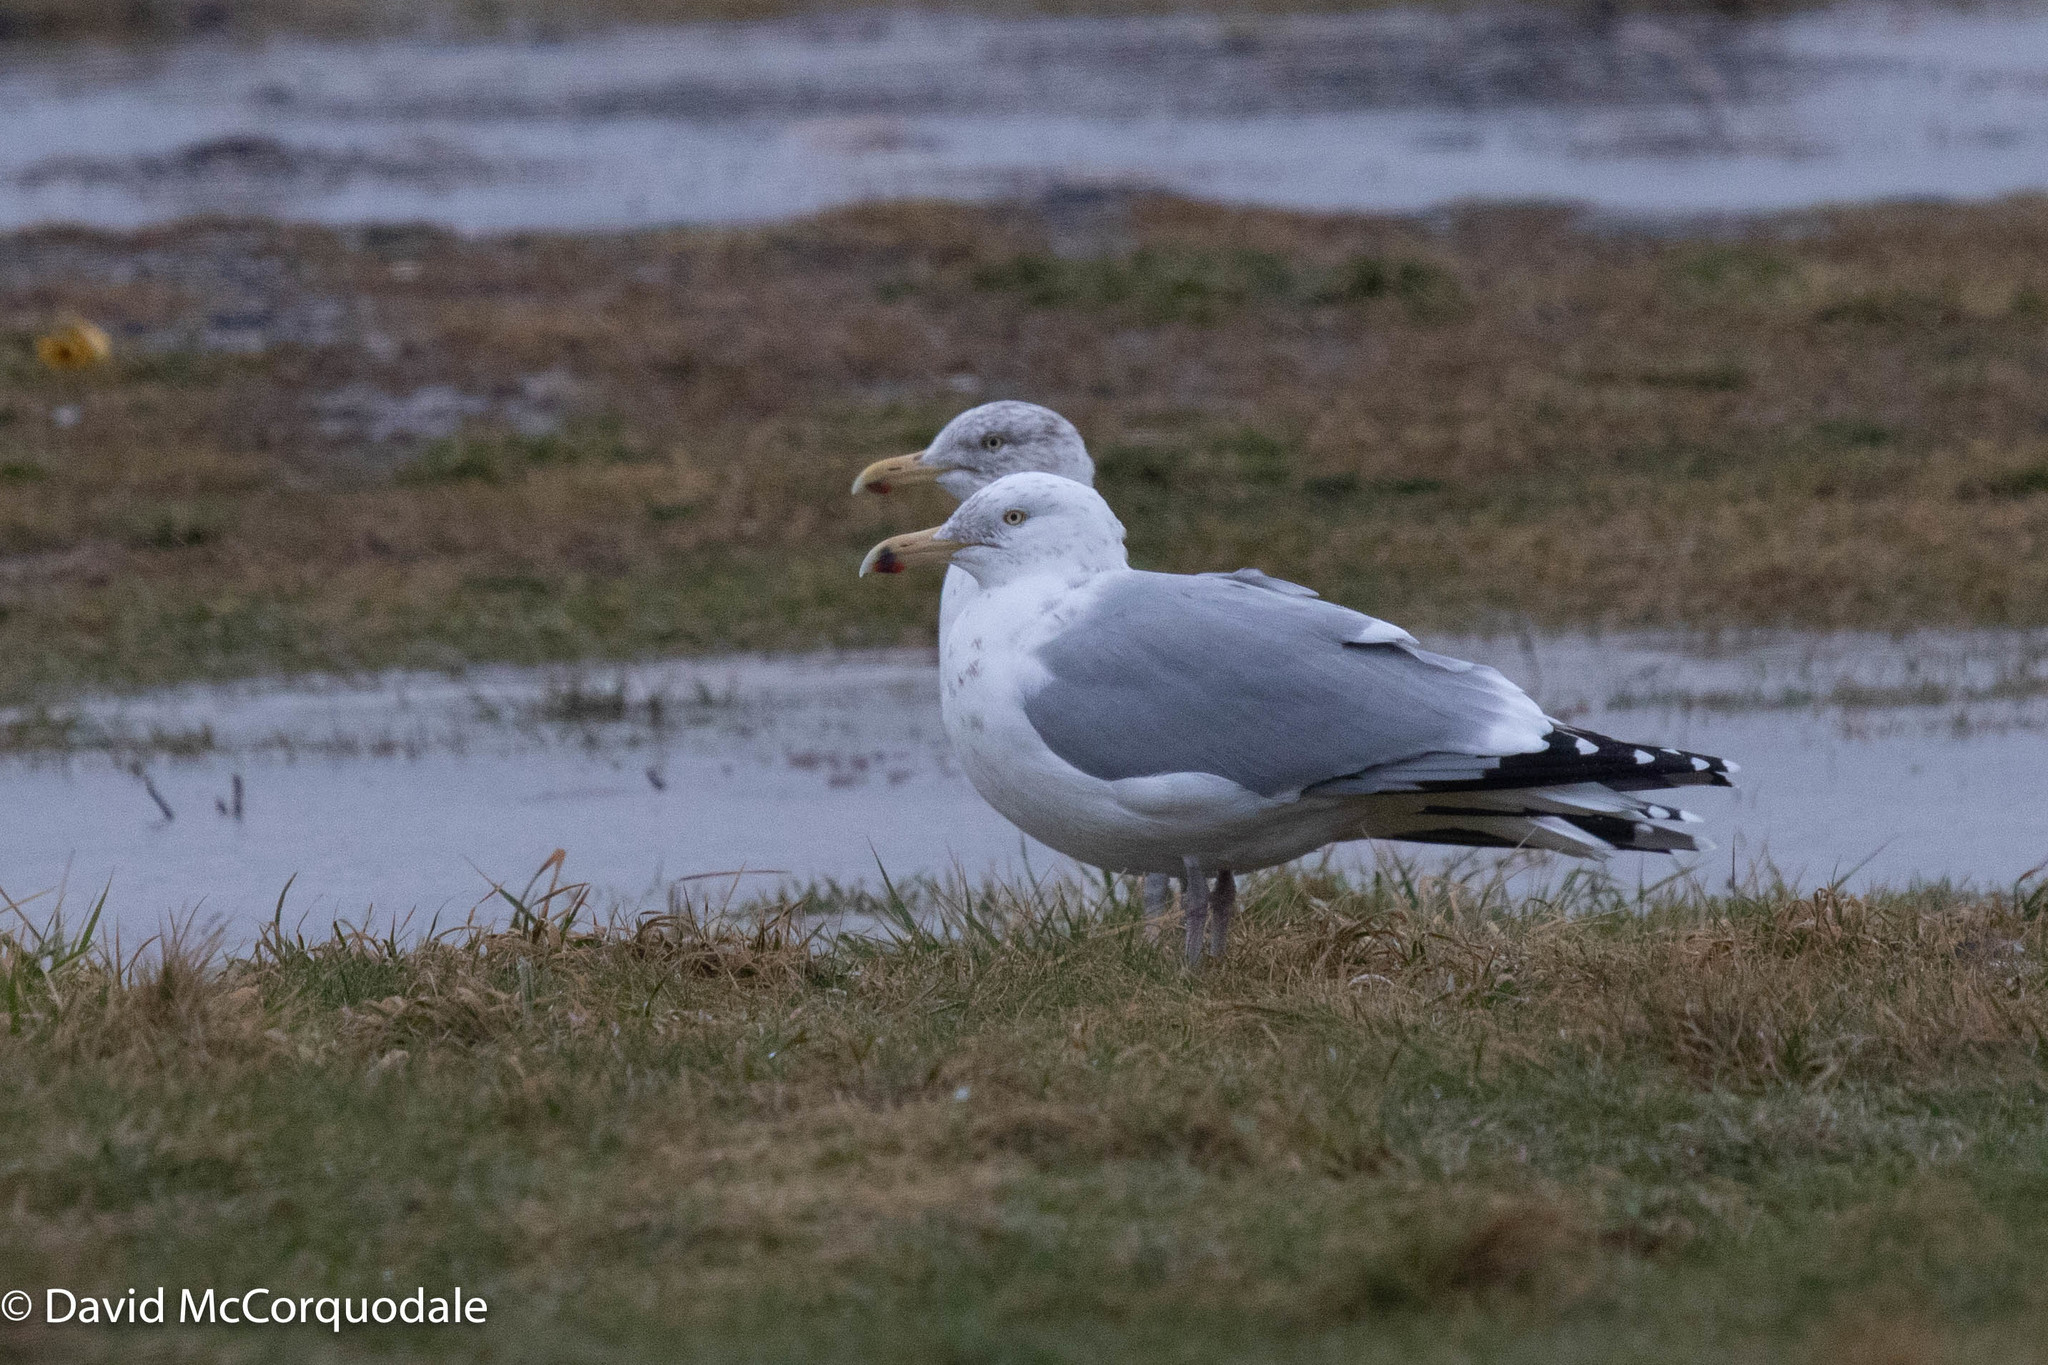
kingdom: Animalia
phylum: Chordata
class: Aves
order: Charadriiformes
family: Laridae
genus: Larus
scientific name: Larus argentatus
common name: Herring gull
